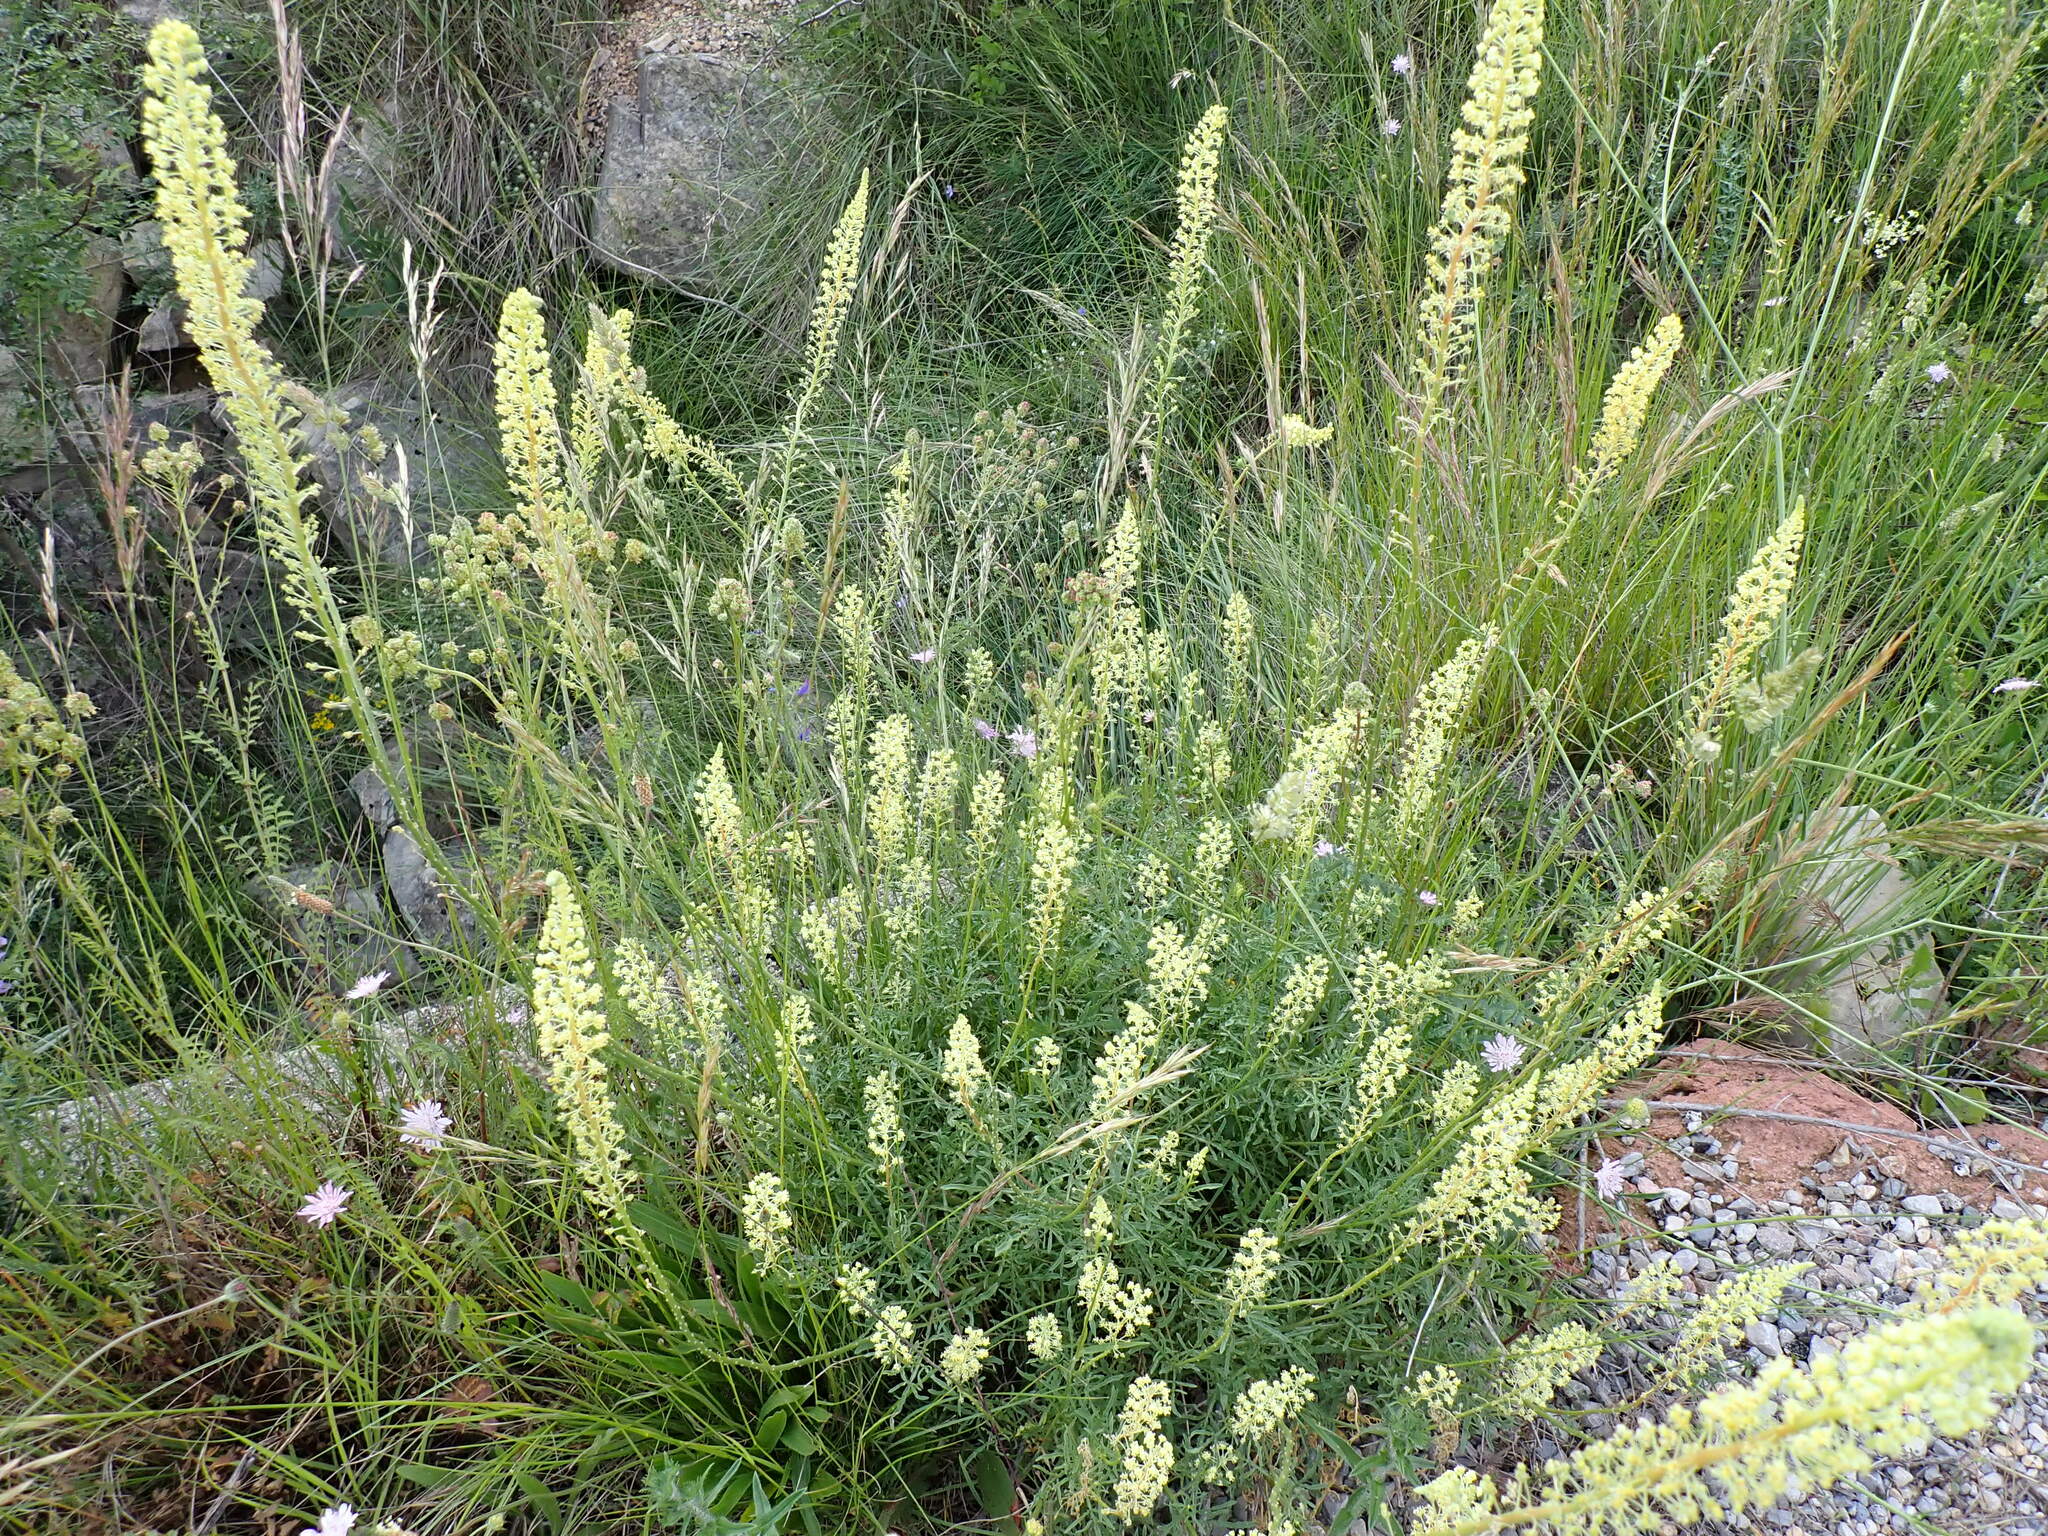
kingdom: Plantae
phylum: Tracheophyta
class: Magnoliopsida
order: Brassicales
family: Resedaceae
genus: Reseda
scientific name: Reseda lutea
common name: Wild mignonette
